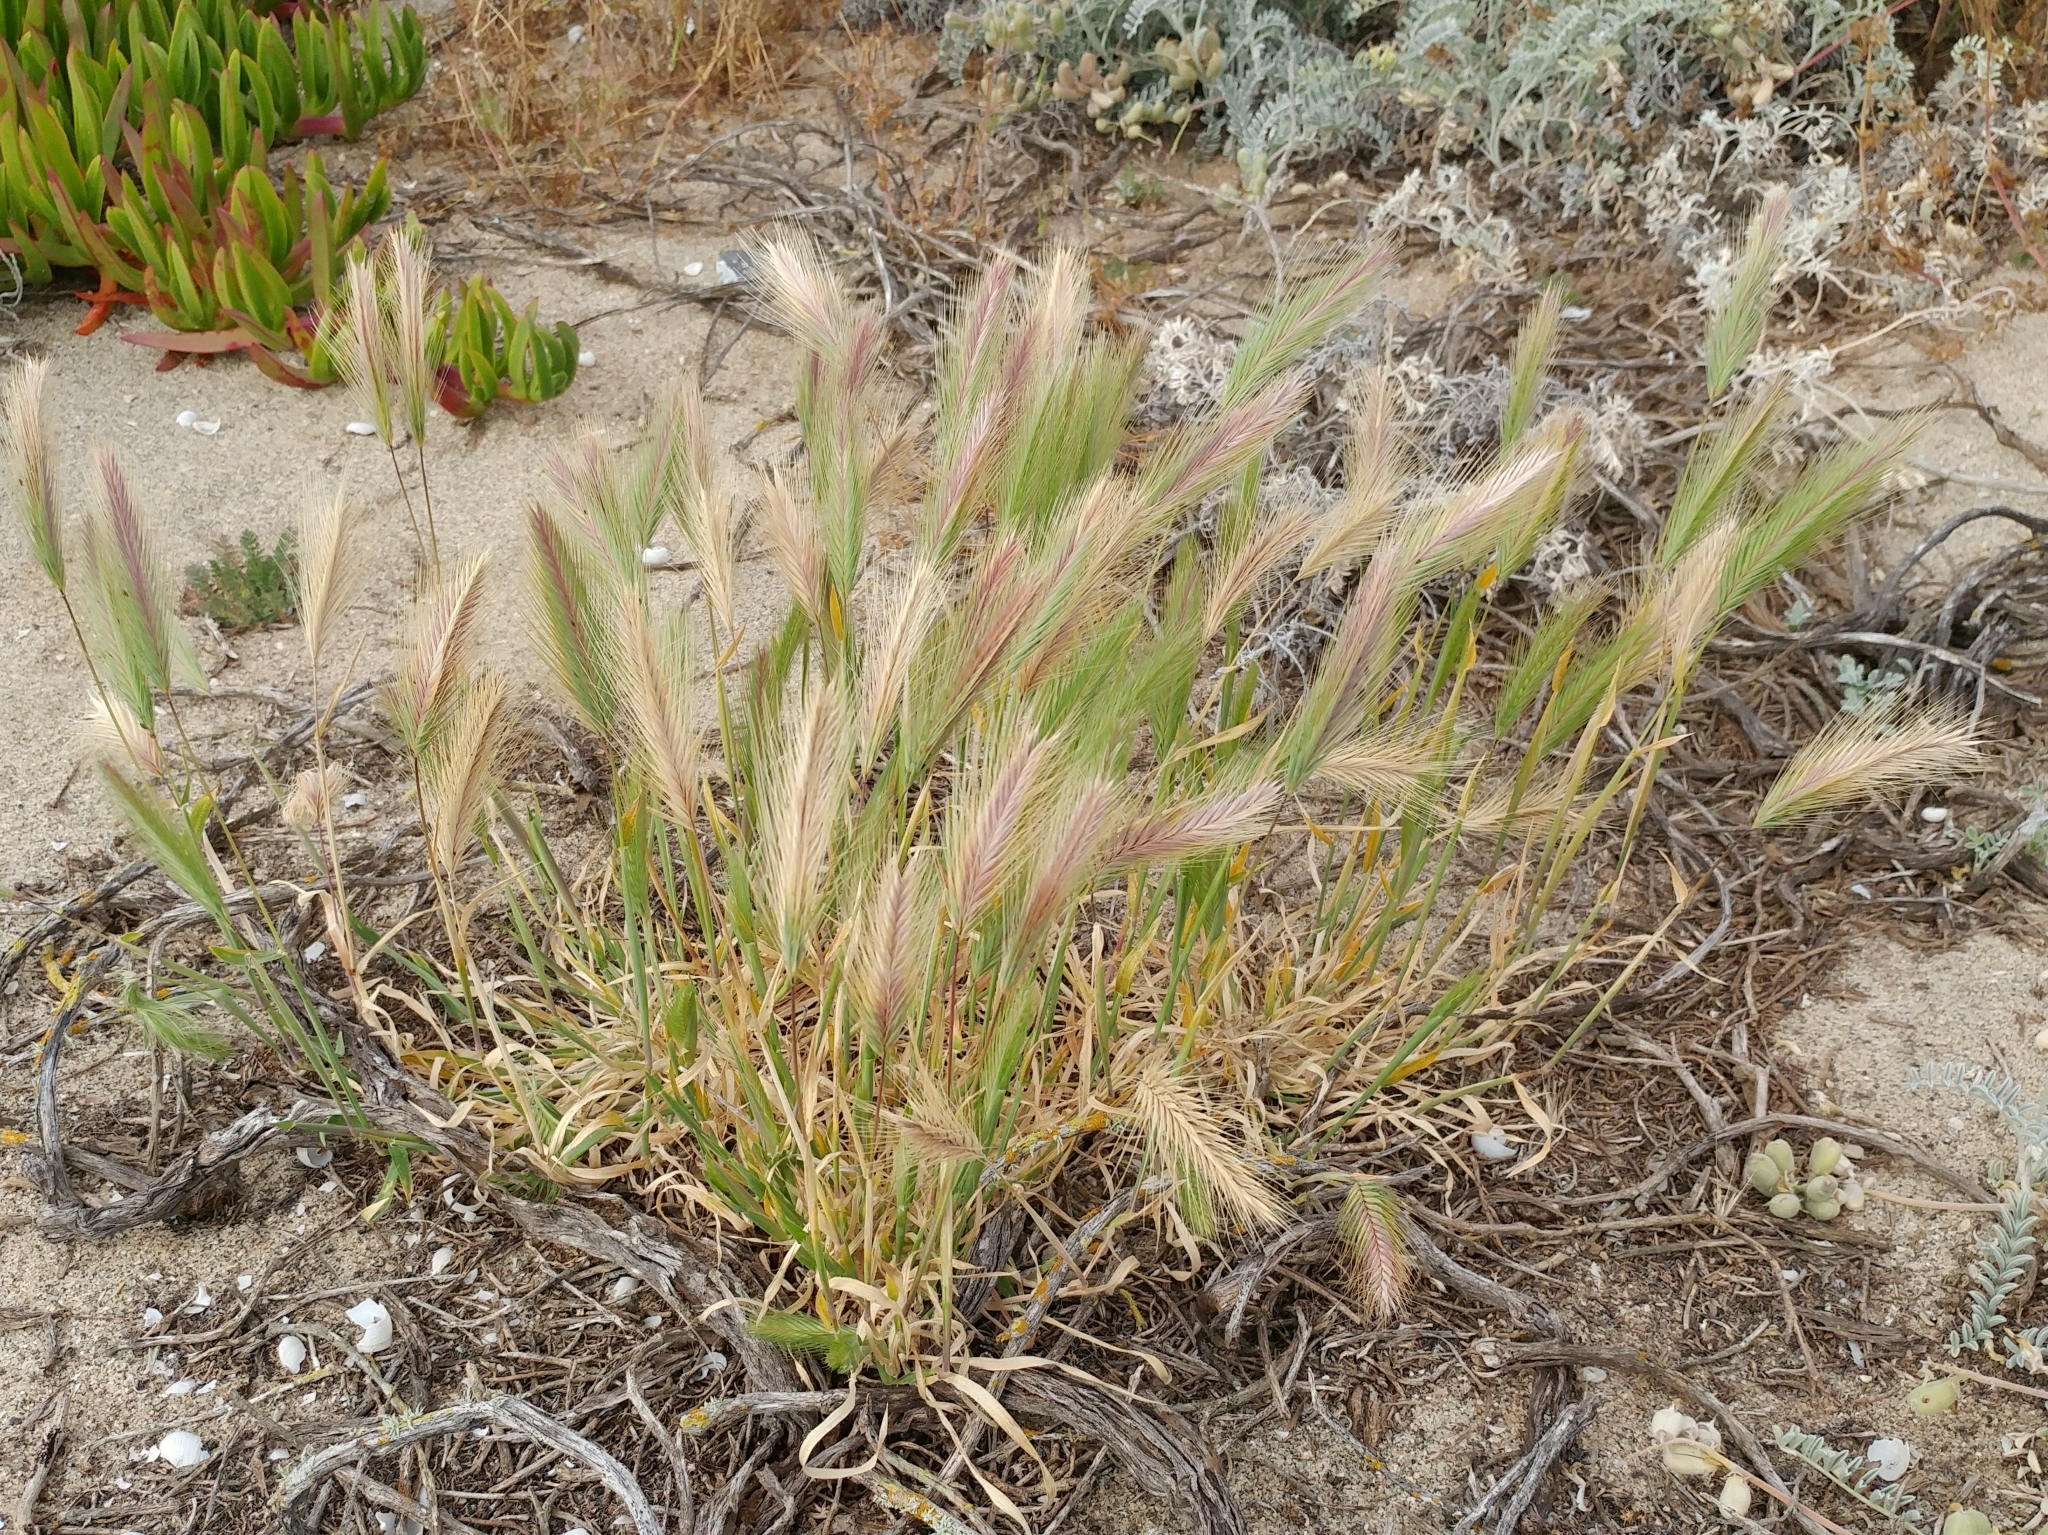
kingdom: Plantae
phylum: Tracheophyta
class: Liliopsida
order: Poales
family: Poaceae
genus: Hordeum
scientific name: Hordeum murinum
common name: Wall barley
